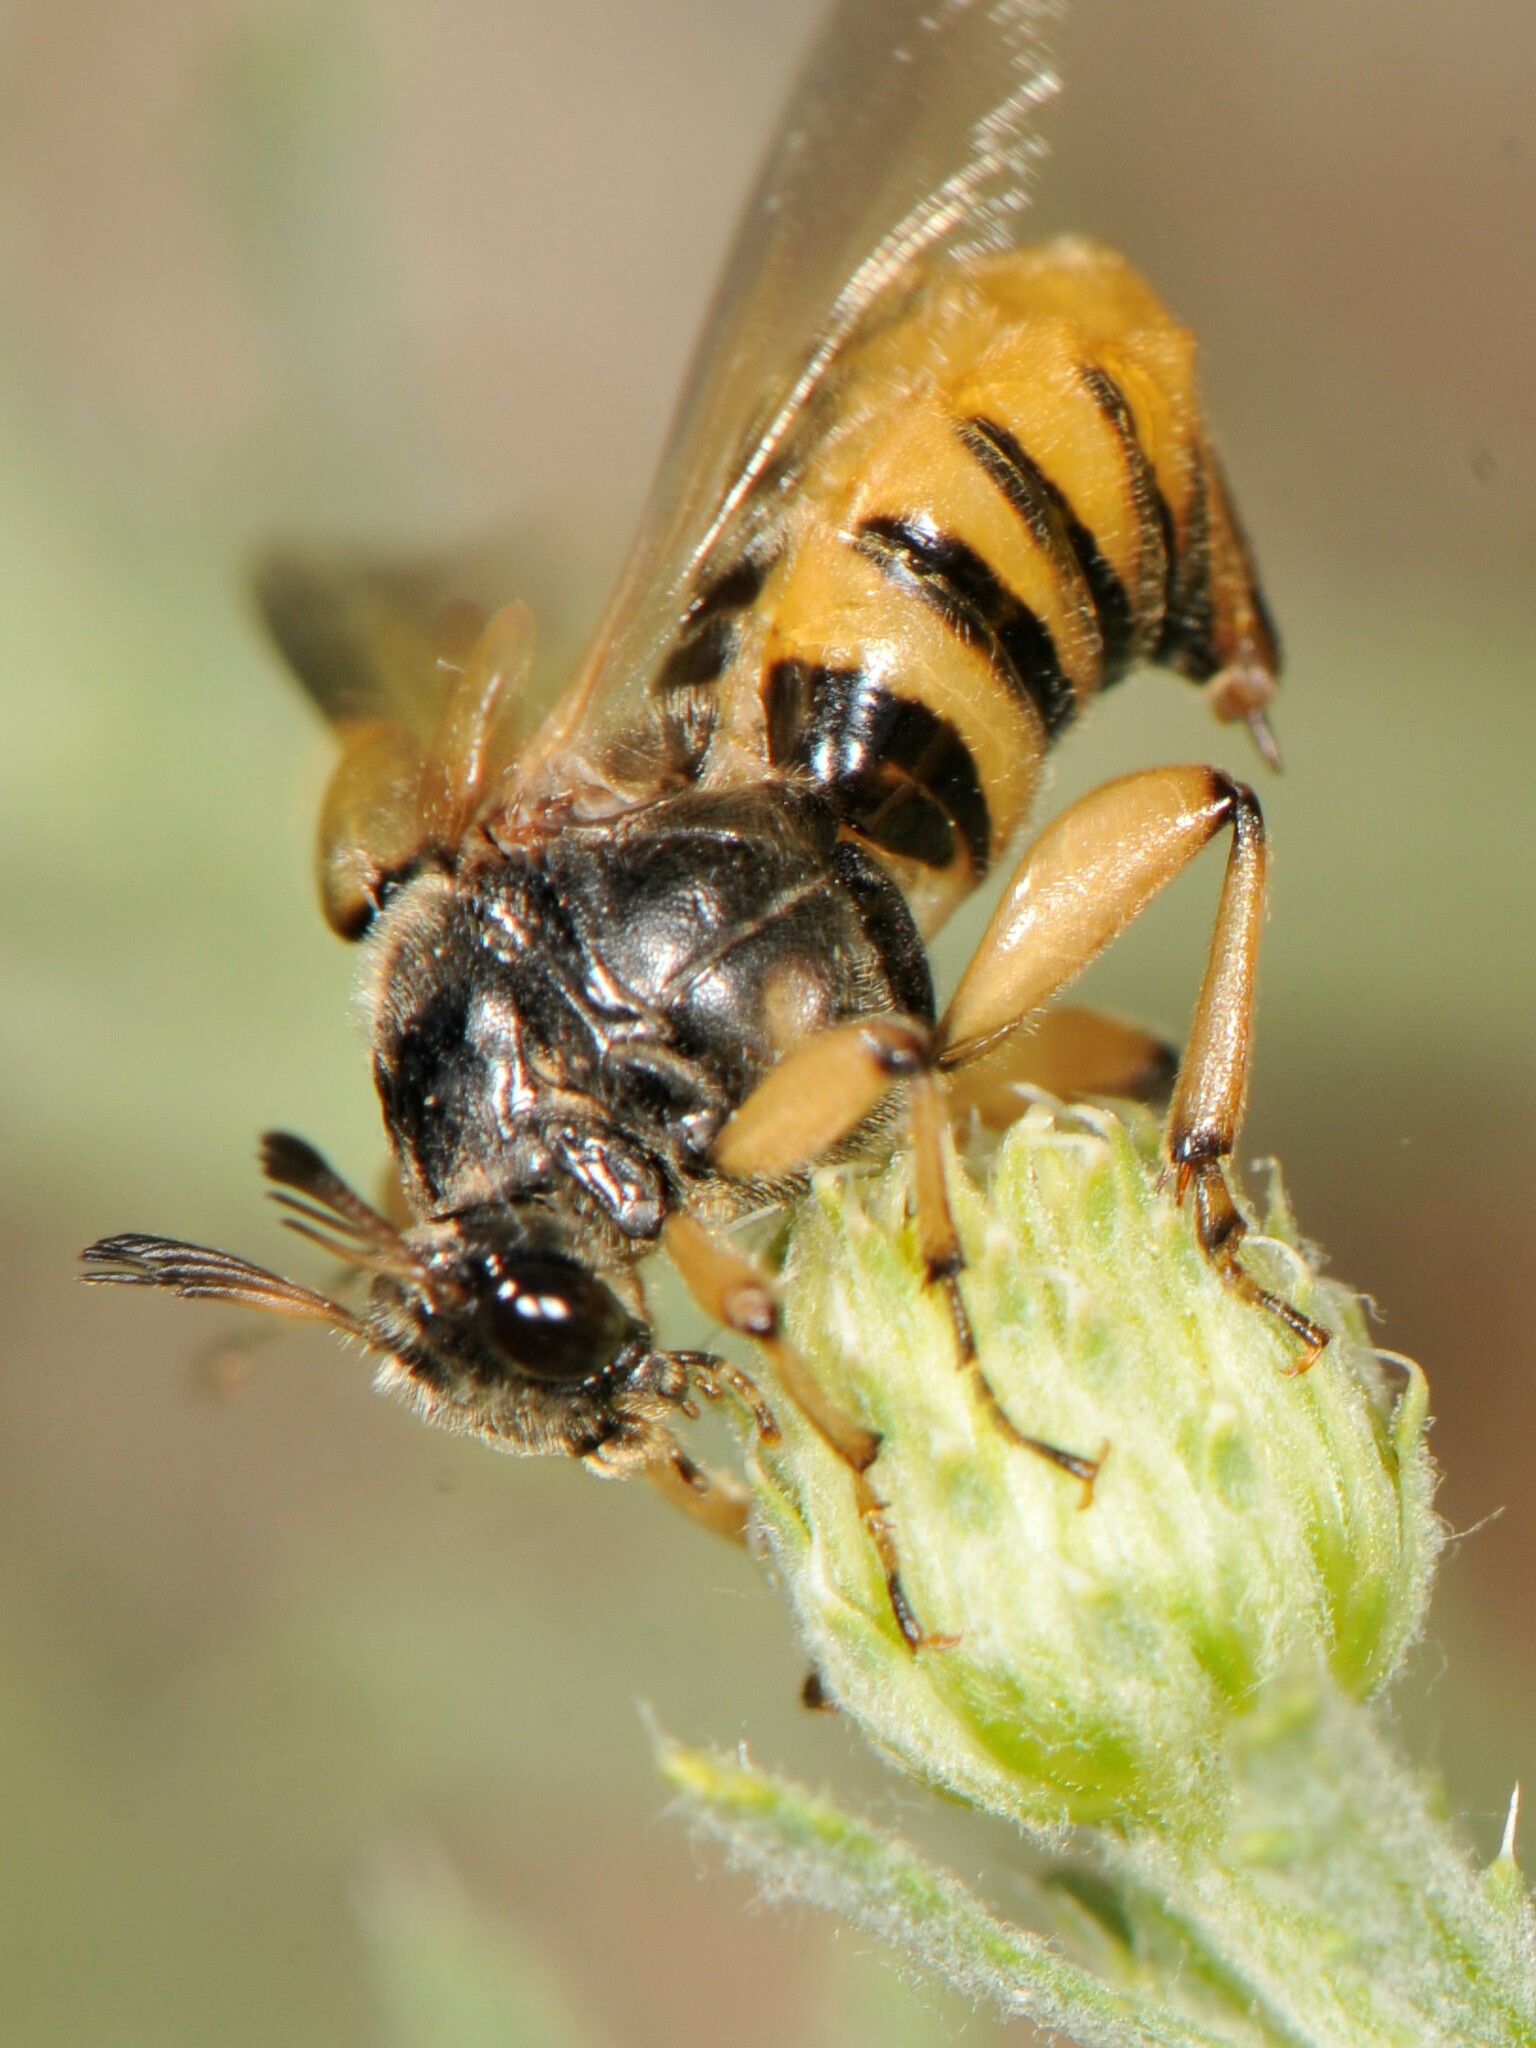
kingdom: Animalia
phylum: Arthropoda
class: Insecta
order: Coleoptera
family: Ripiphoridae
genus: Ripiphorus
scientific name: Ripiphorus
